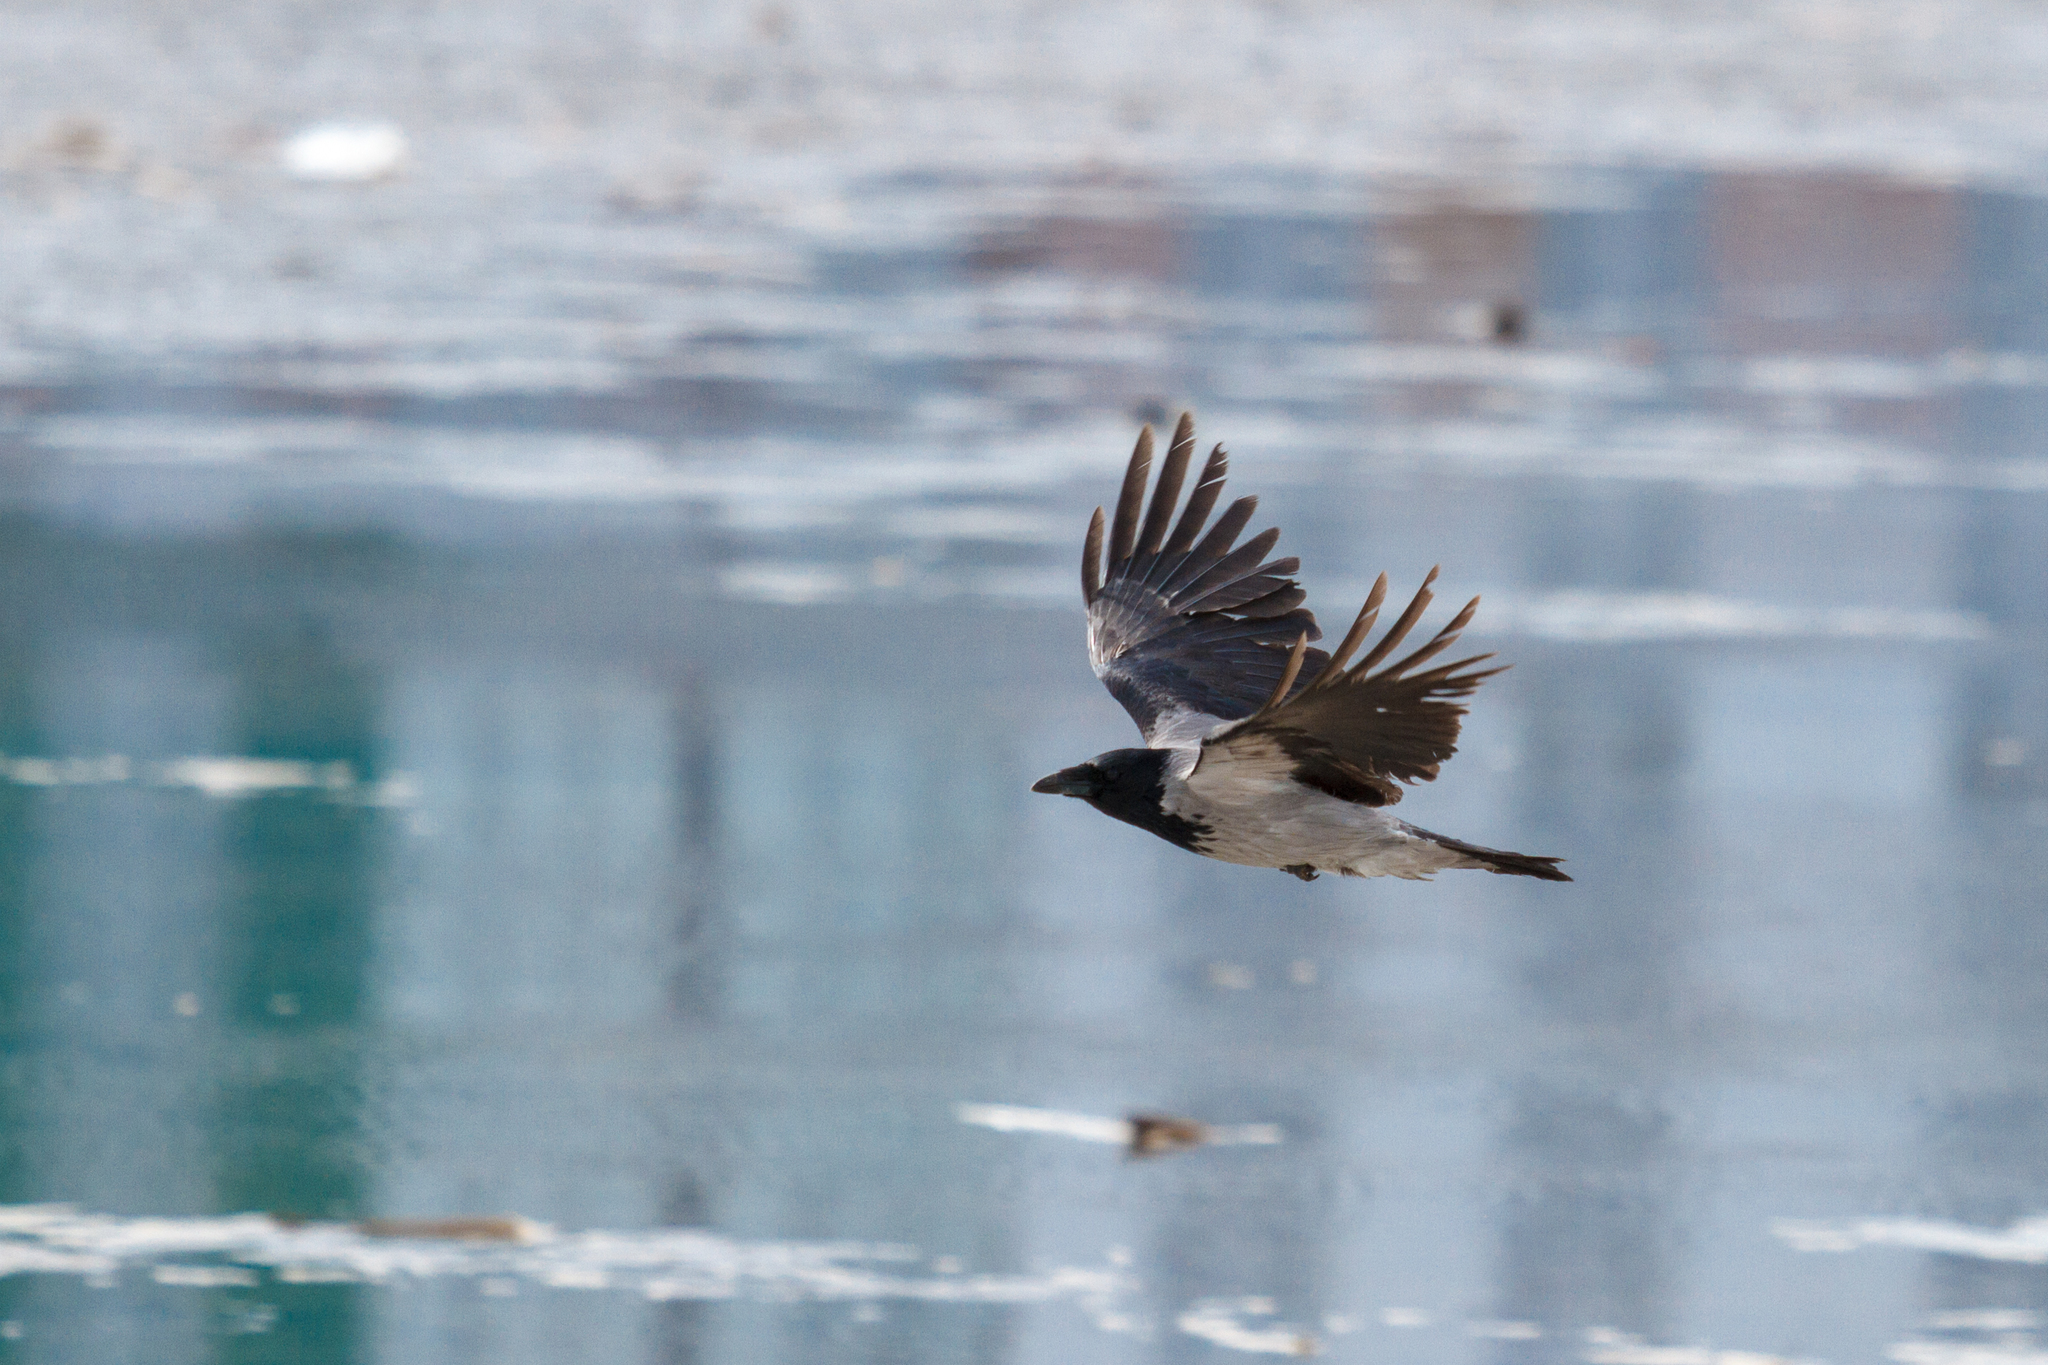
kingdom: Animalia
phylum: Chordata
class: Aves
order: Passeriformes
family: Corvidae
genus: Corvus
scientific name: Corvus cornix
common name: Hooded crow
